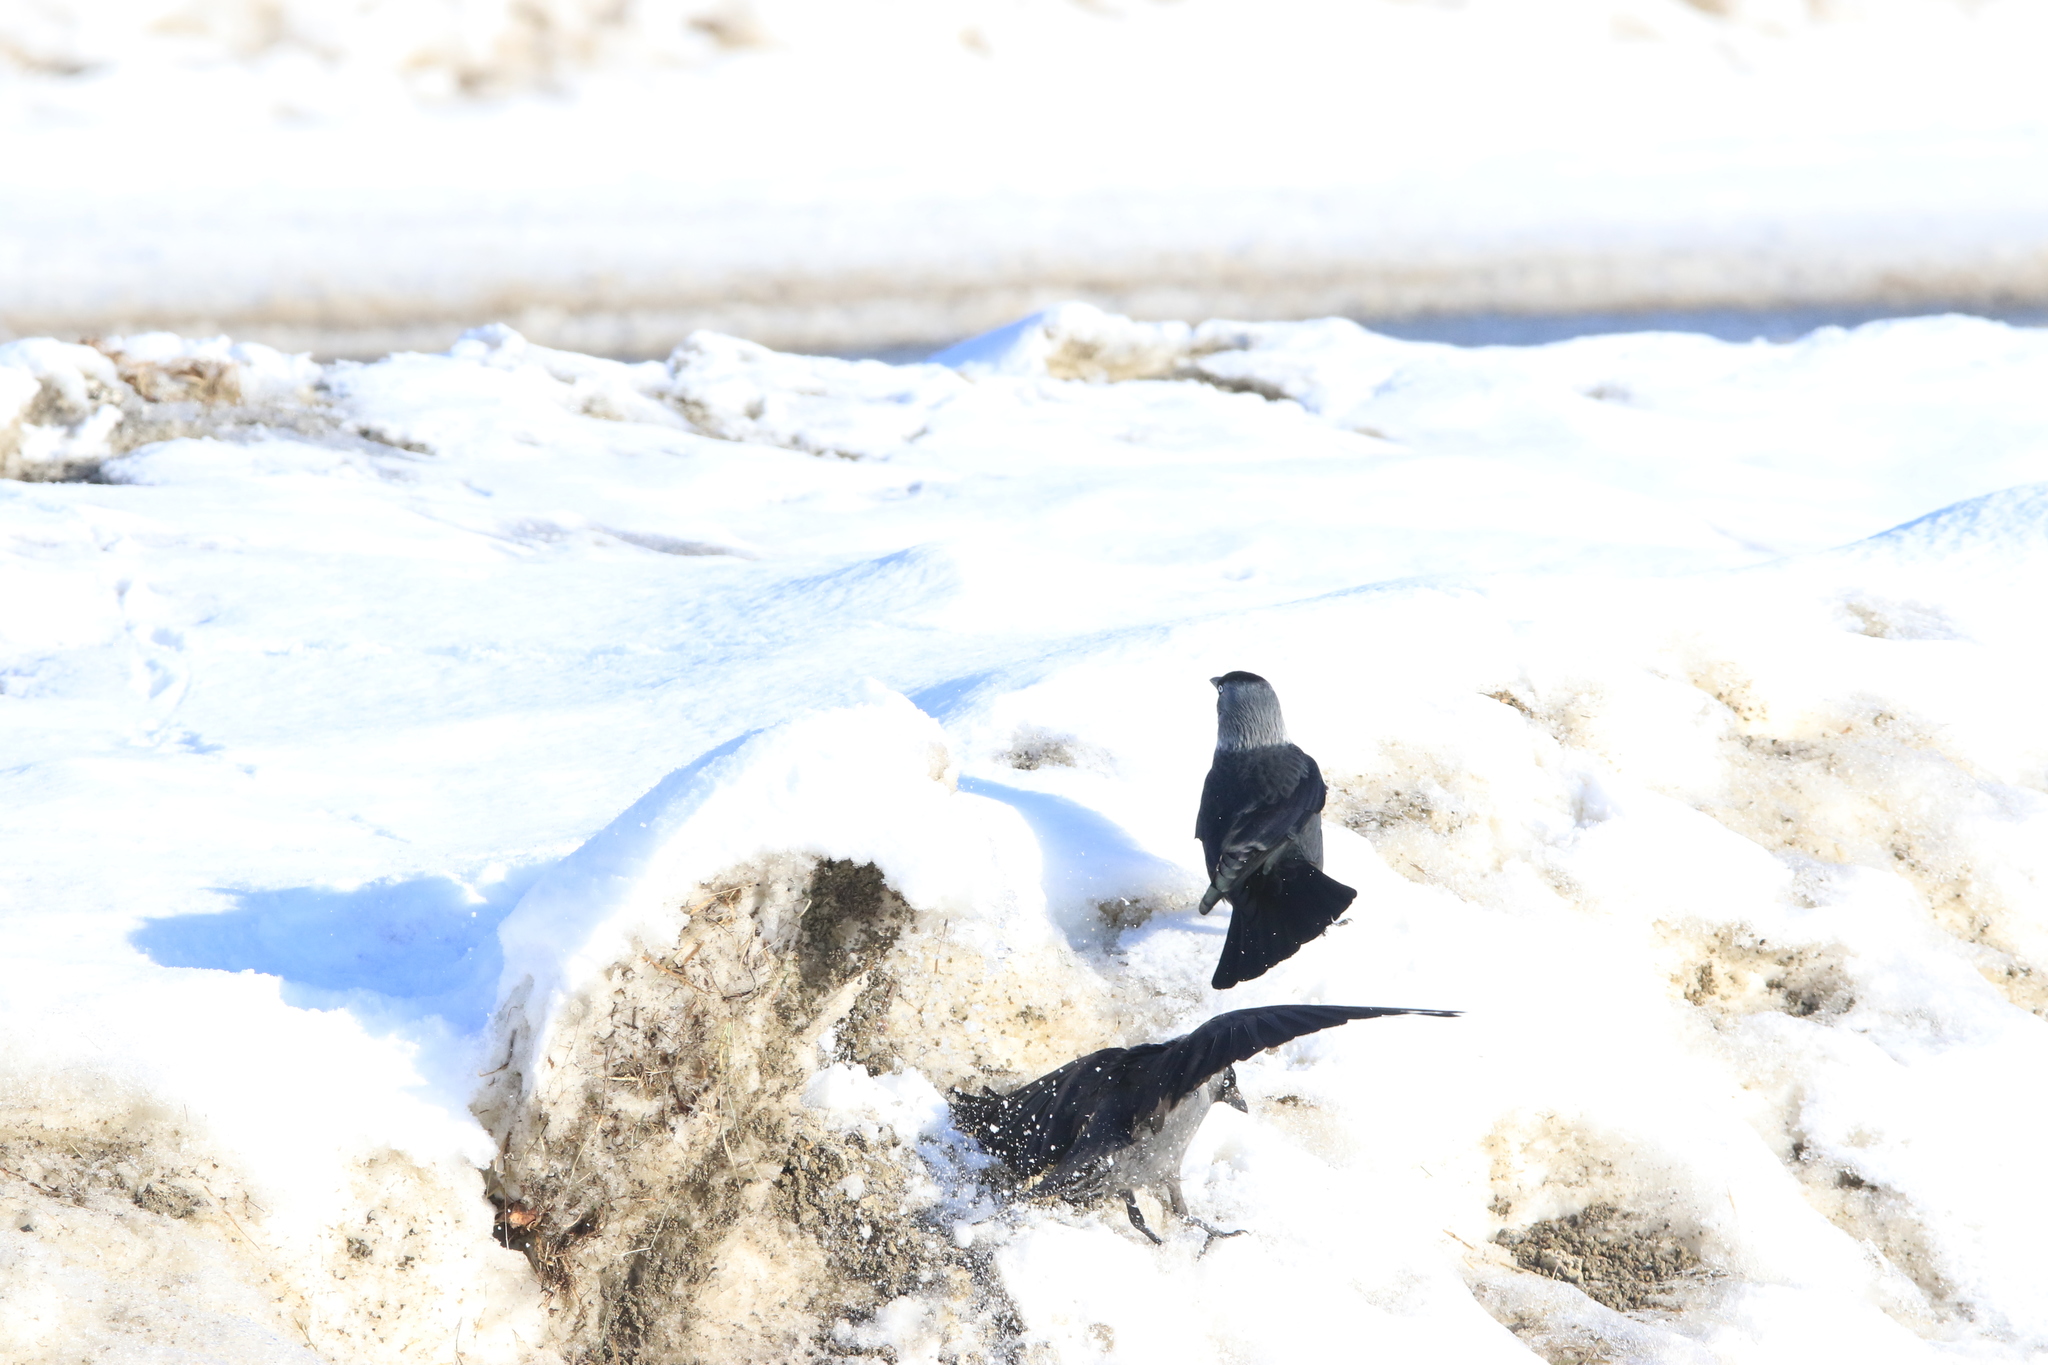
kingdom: Animalia
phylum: Chordata
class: Aves
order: Passeriformes
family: Corvidae
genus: Coloeus
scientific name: Coloeus monedula
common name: Western jackdaw
